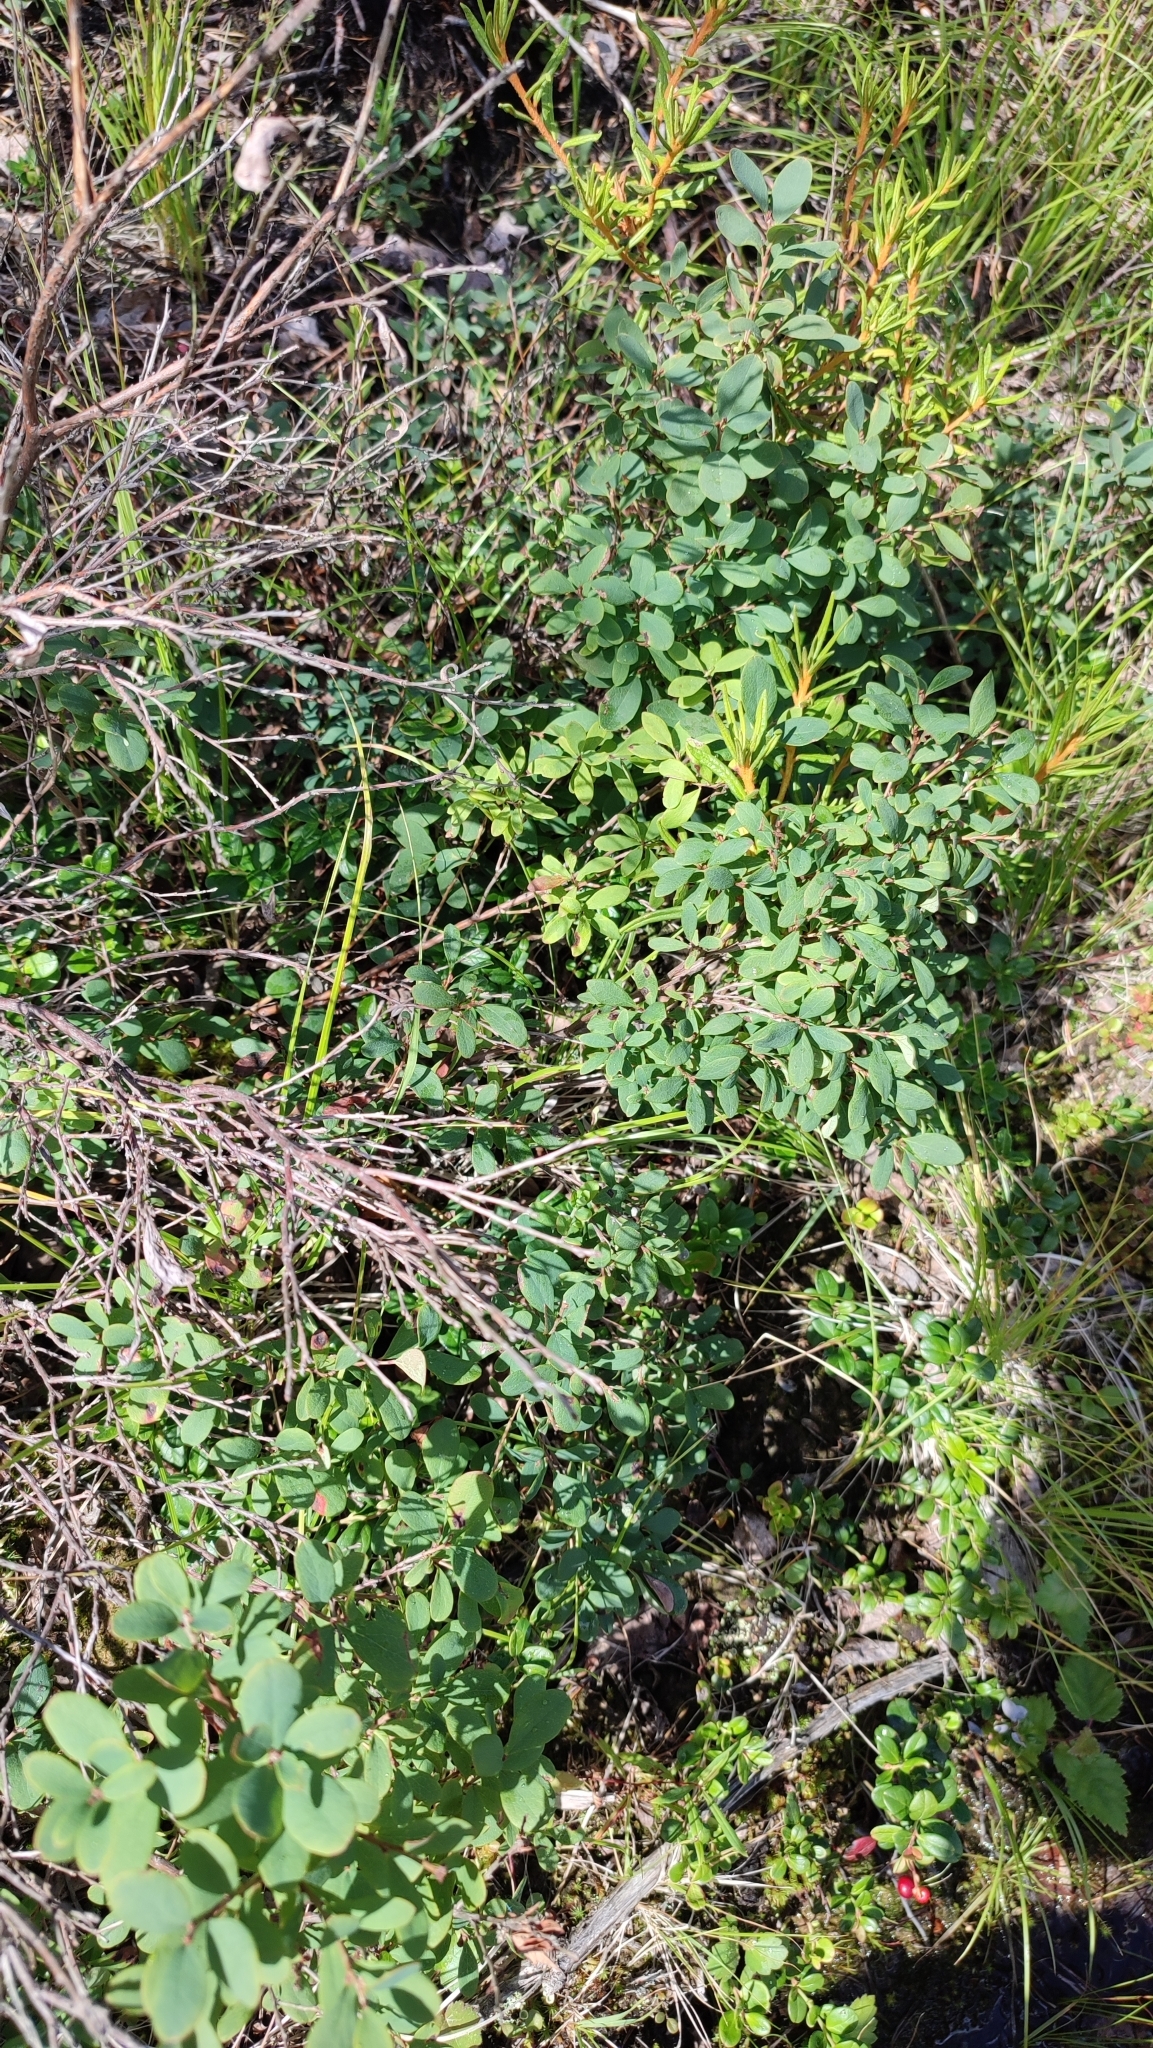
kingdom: Plantae
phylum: Tracheophyta
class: Magnoliopsida
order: Ericales
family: Ericaceae
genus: Vaccinium
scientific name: Vaccinium uliginosum
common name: Bog bilberry
